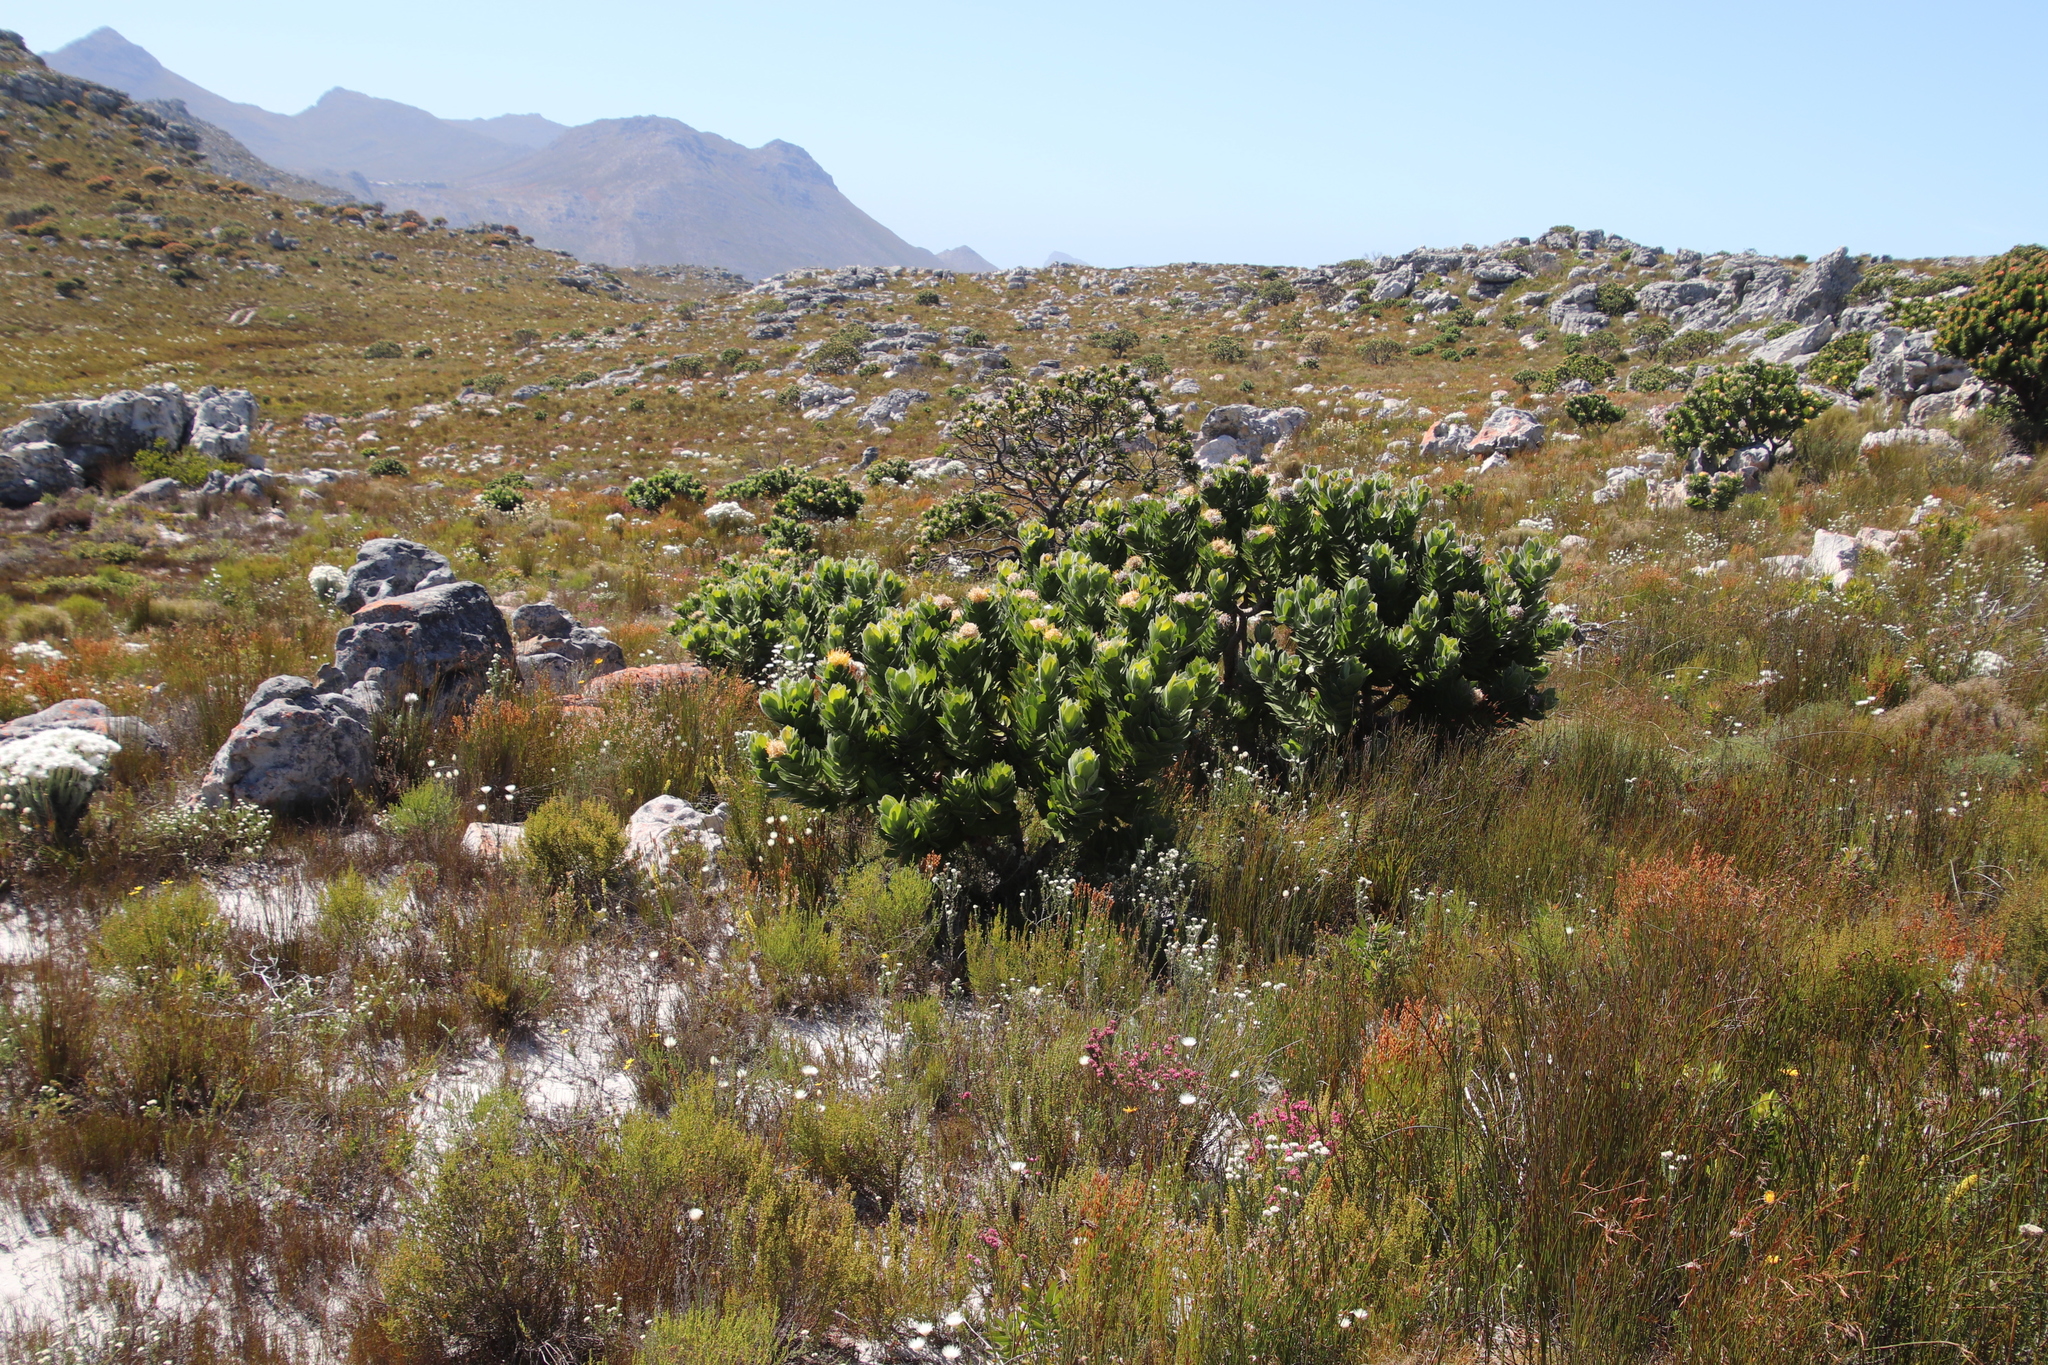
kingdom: Plantae
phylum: Tracheophyta
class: Magnoliopsida
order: Proteales
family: Proteaceae
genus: Leucospermum
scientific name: Leucospermum conocarpodendron
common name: Tree pincushion
